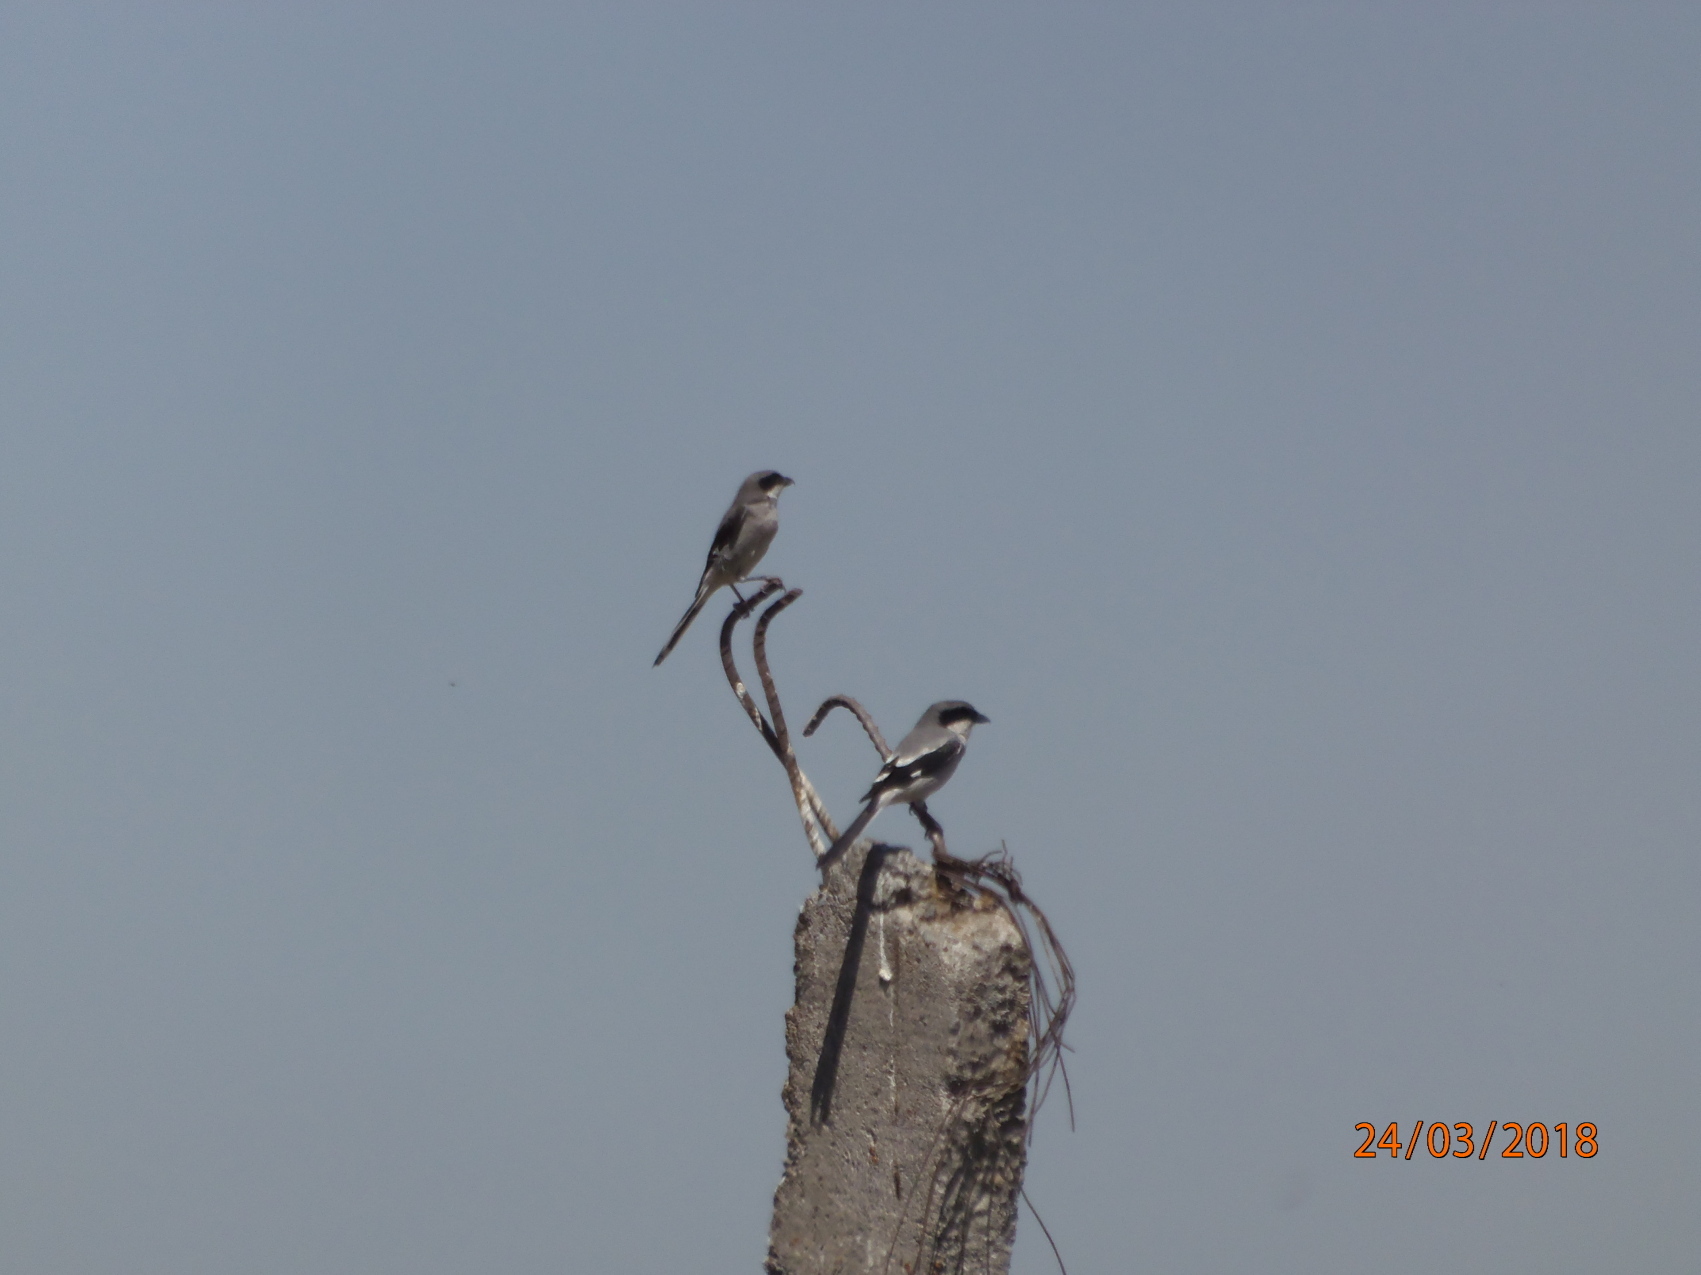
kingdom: Animalia
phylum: Chordata
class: Aves
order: Passeriformes
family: Laniidae
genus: Lanius
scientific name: Lanius ludovicianus
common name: Loggerhead shrike
